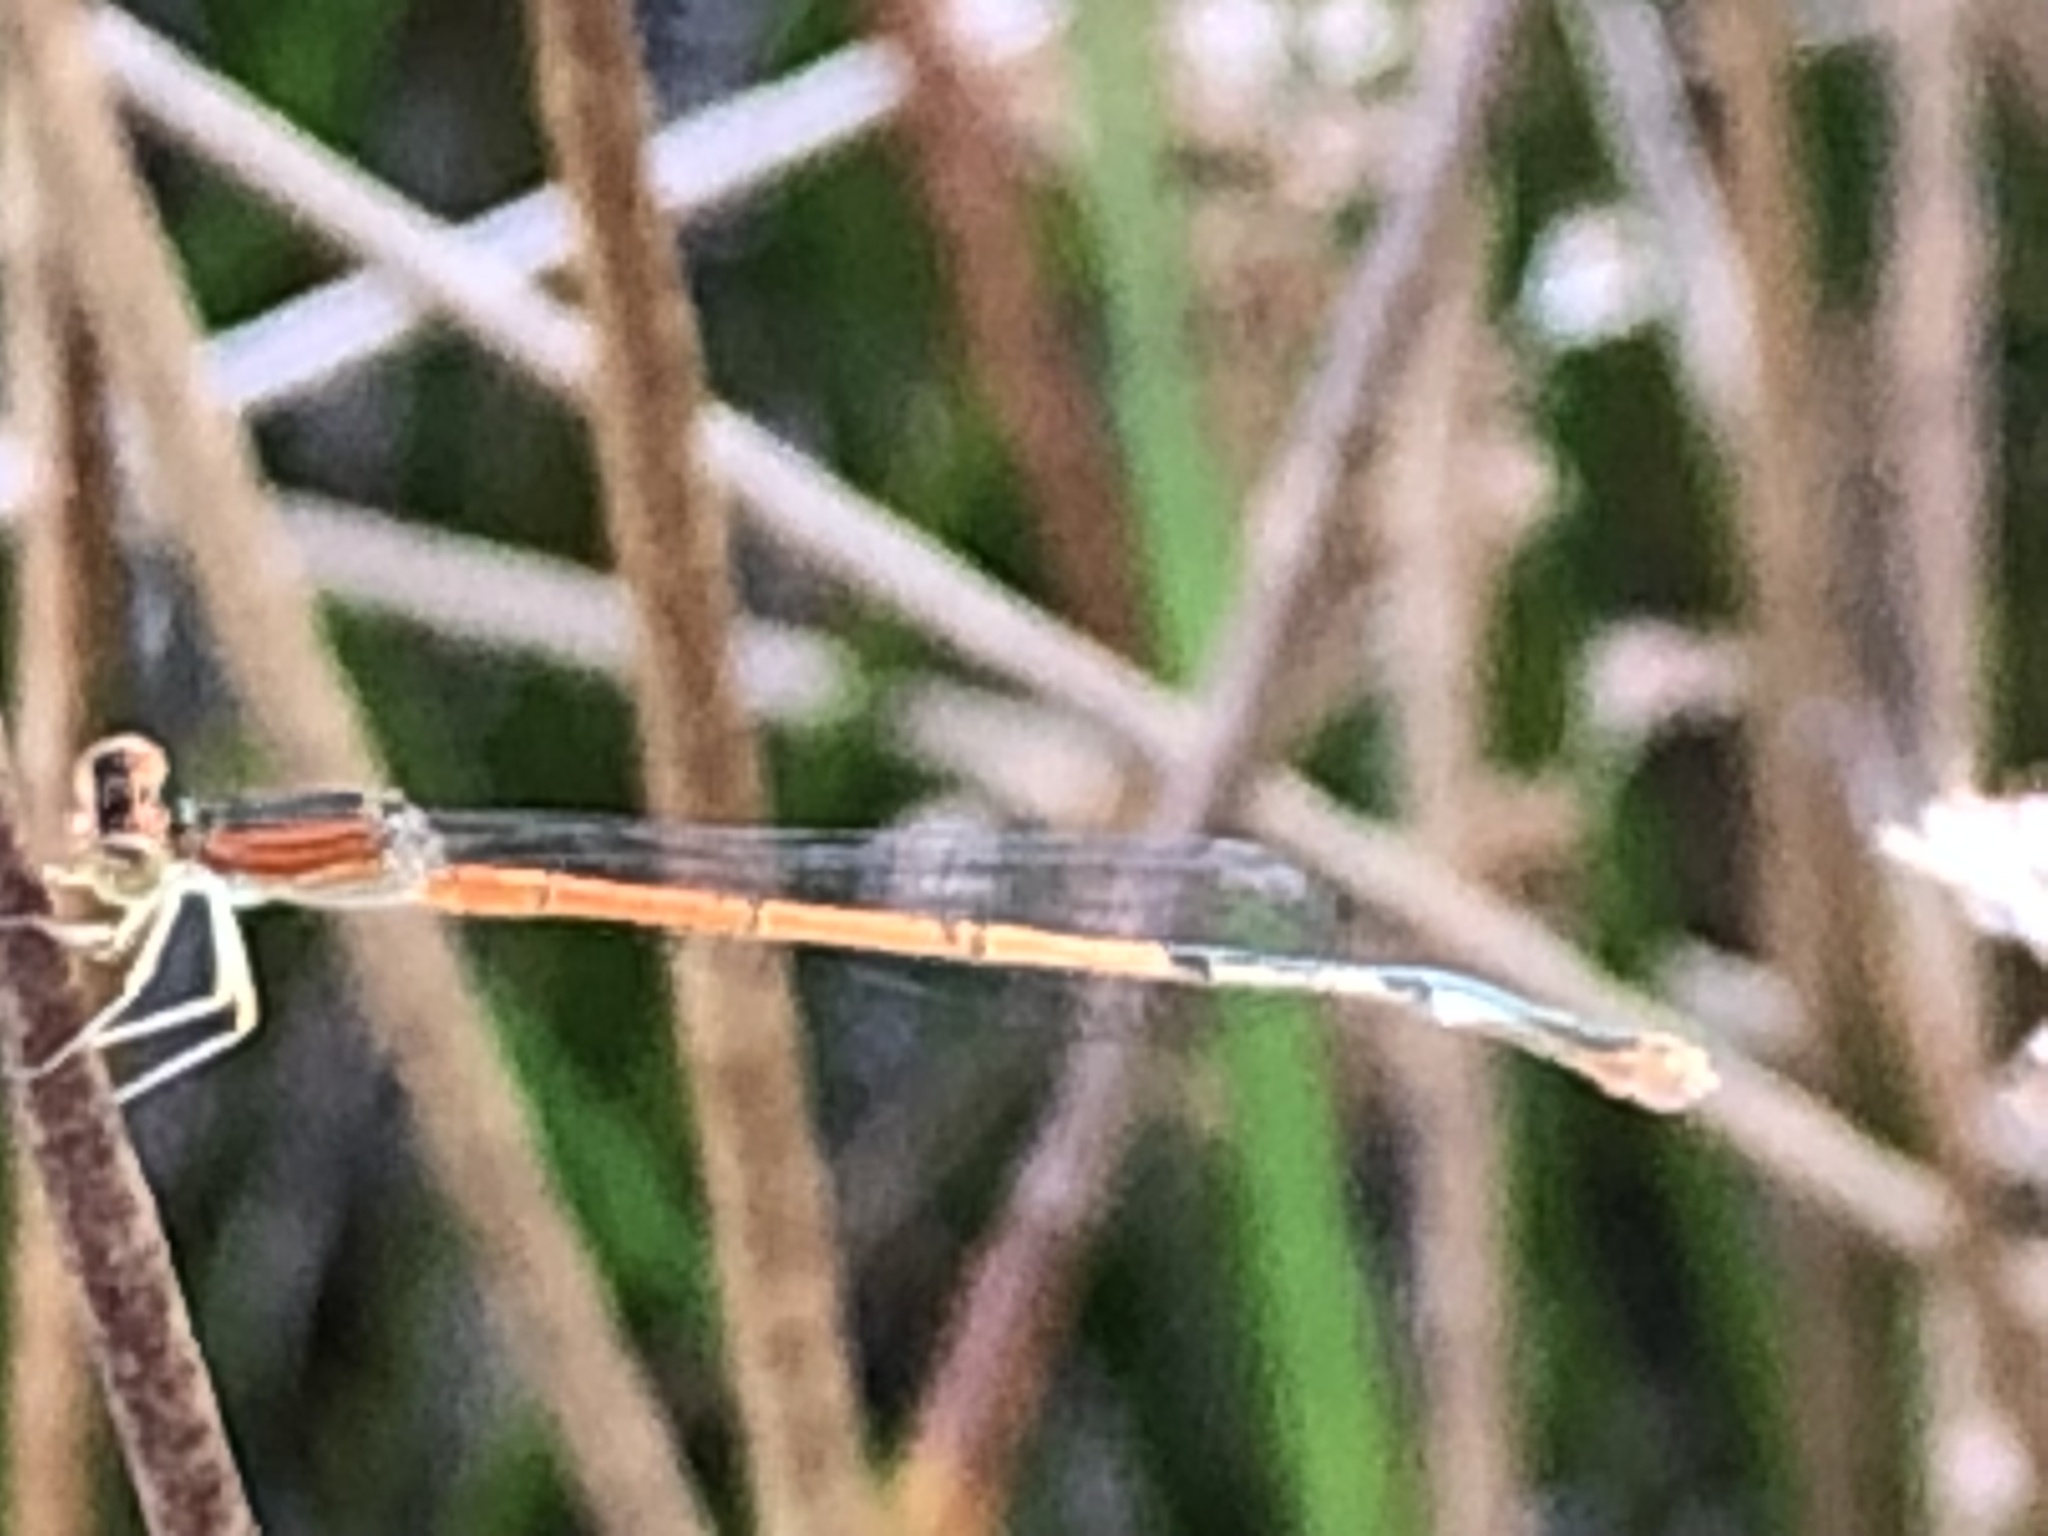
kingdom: Animalia
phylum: Arthropoda
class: Insecta
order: Odonata
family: Coenagrionidae
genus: Ischnura
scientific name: Ischnura hastata
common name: Citrine forktail
